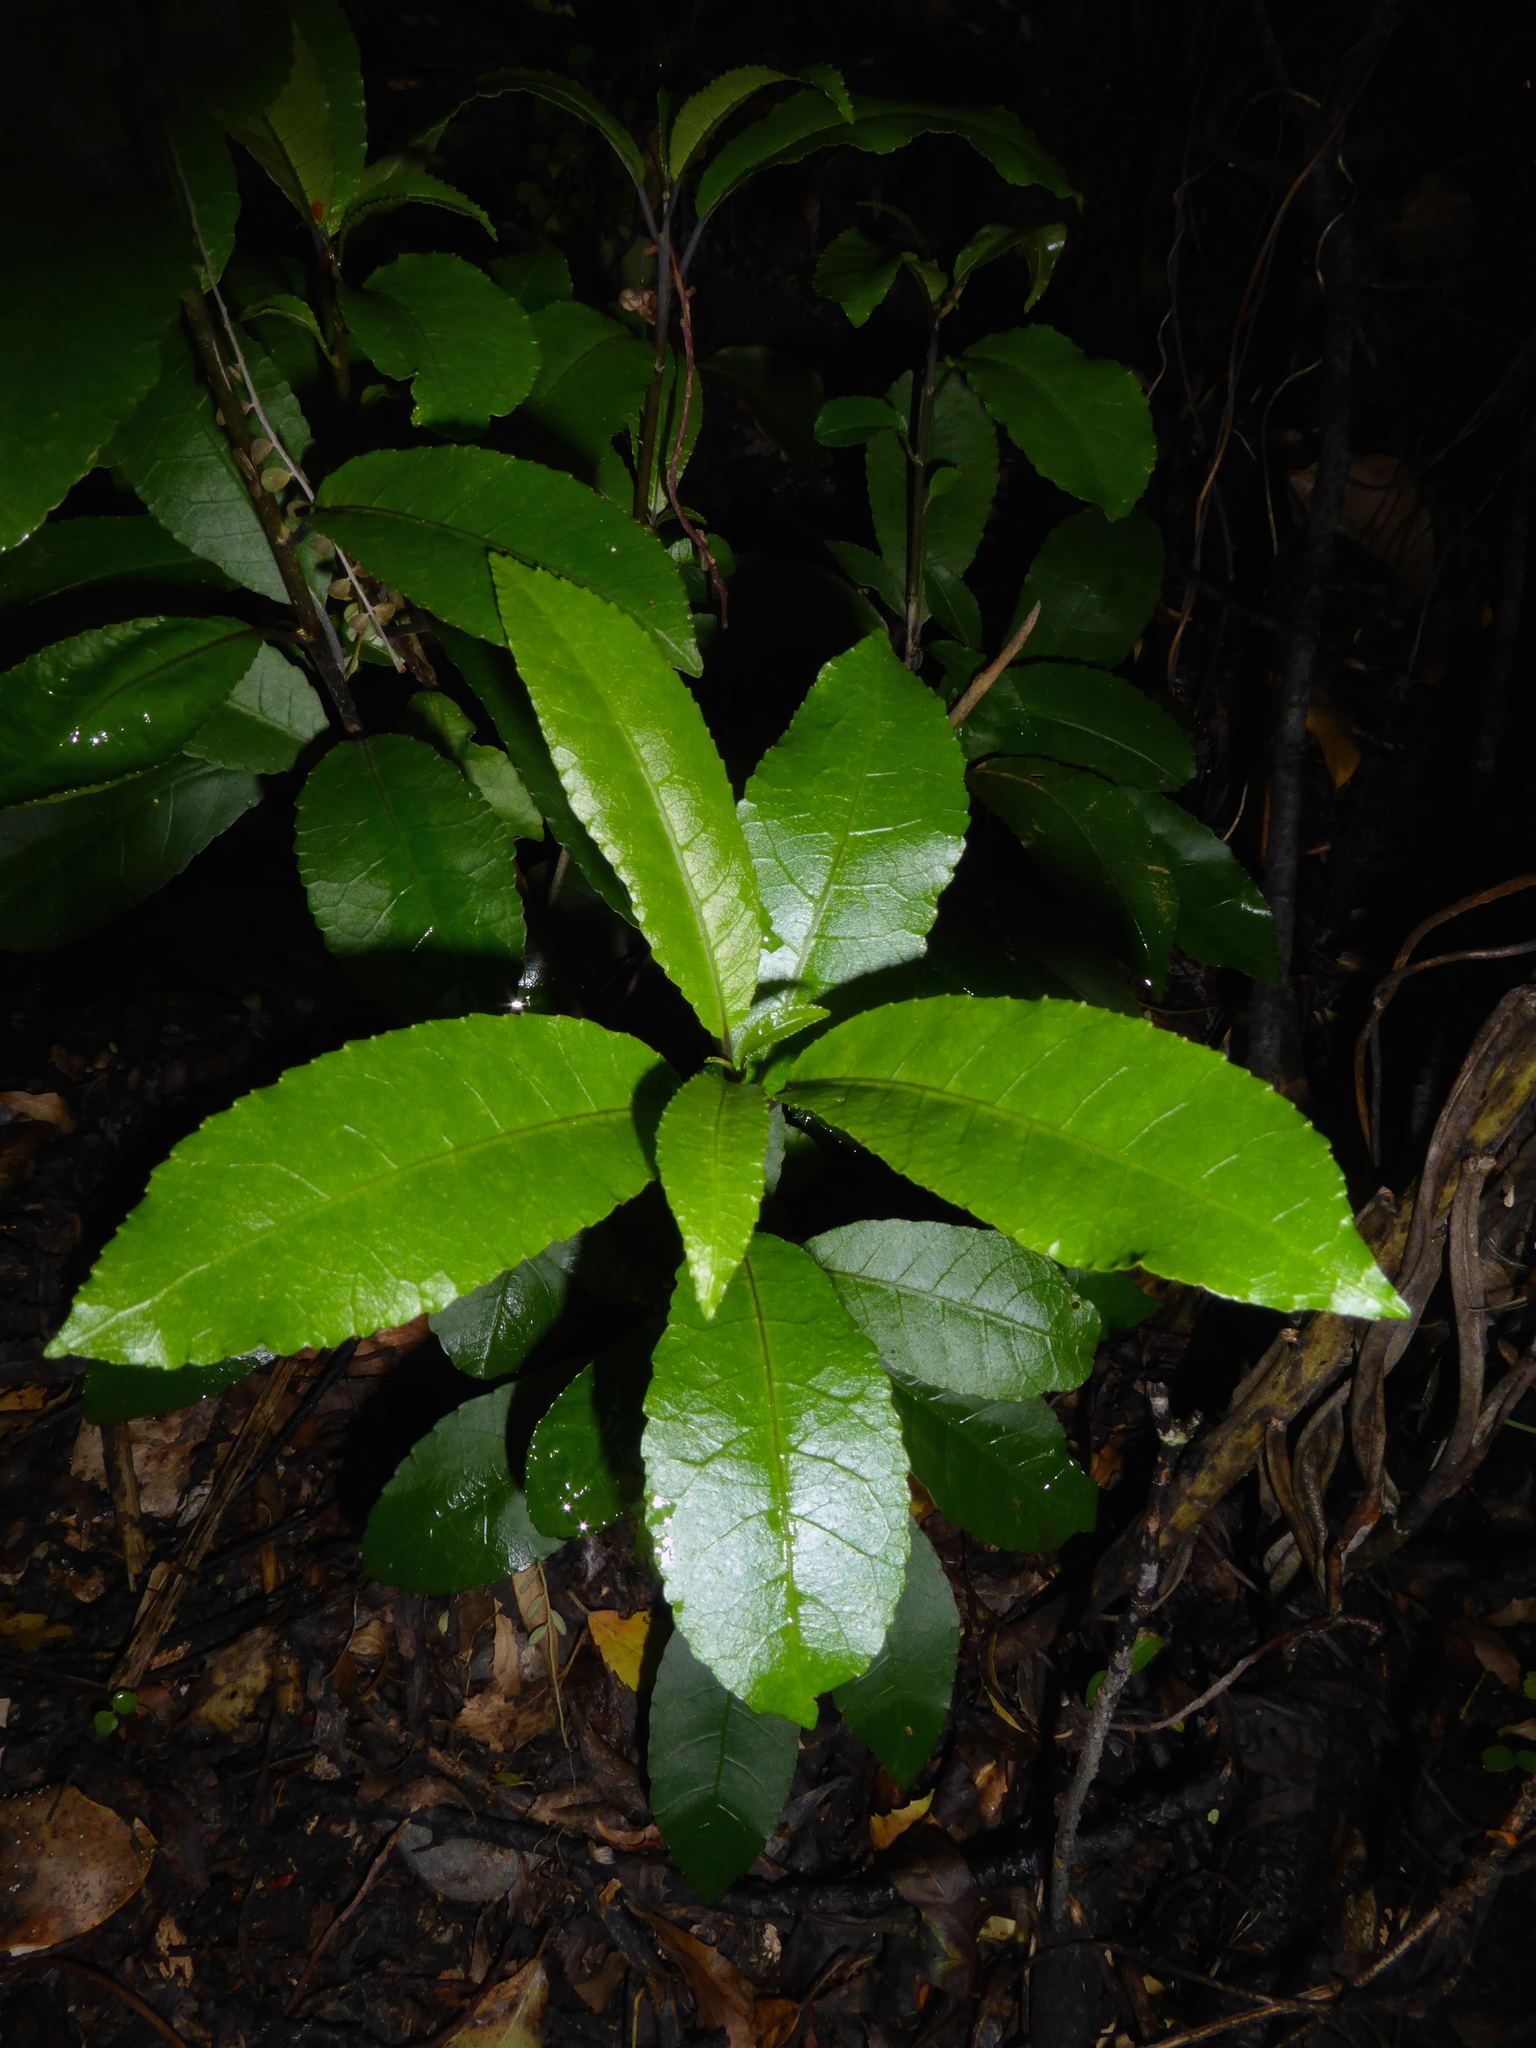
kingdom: Plantae
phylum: Tracheophyta
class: Magnoliopsida
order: Malpighiales
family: Violaceae
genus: Melicytus
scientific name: Melicytus ramiflorus
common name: Mahoe
